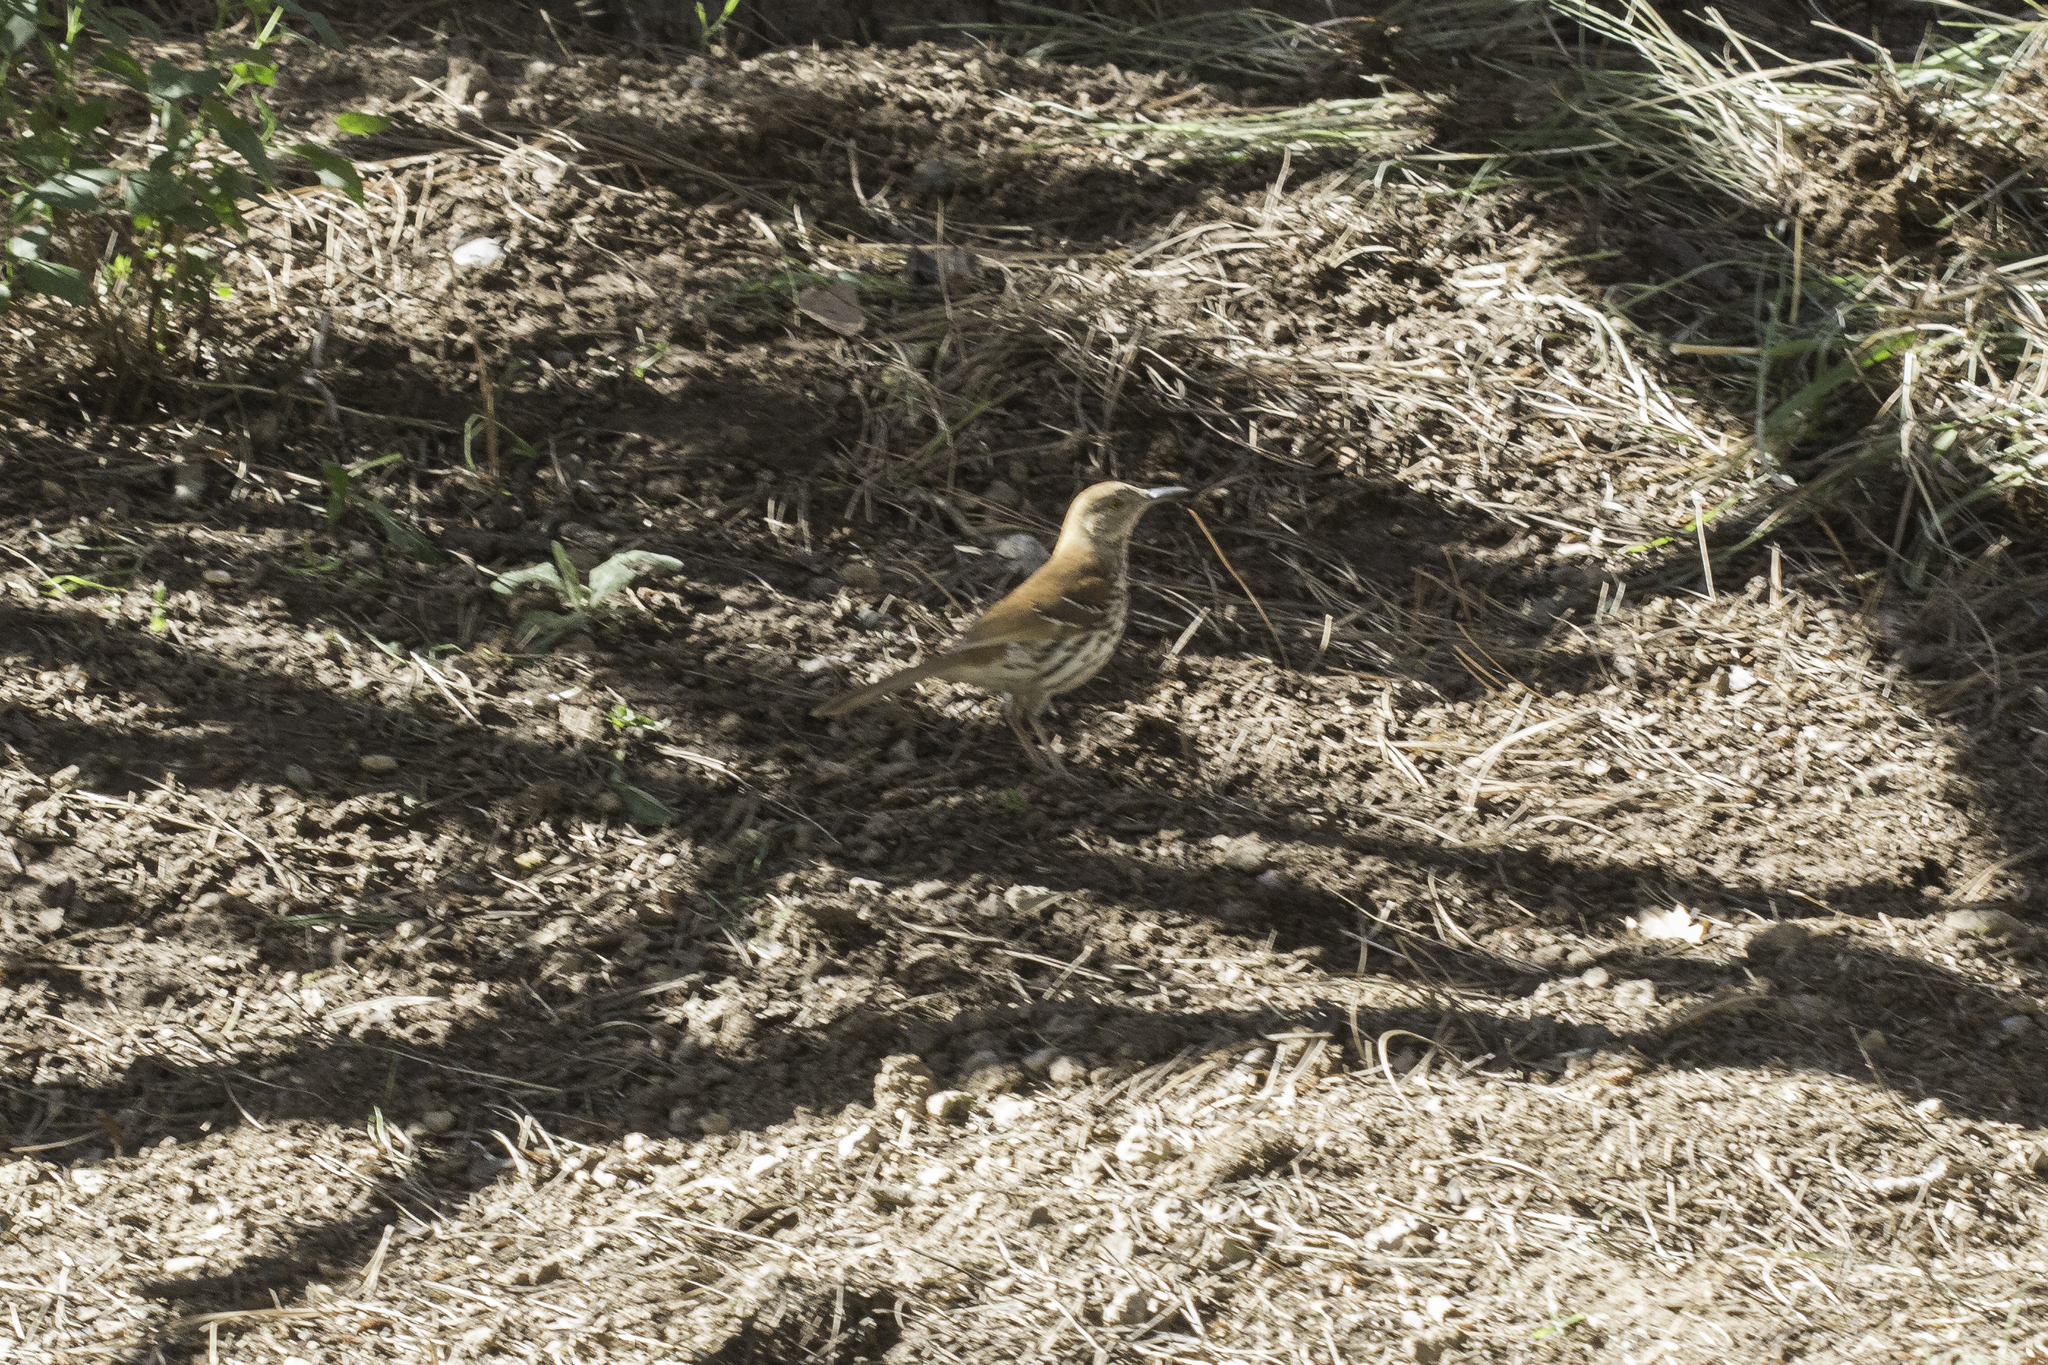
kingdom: Animalia
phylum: Chordata
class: Aves
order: Passeriformes
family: Mimidae
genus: Toxostoma
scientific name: Toxostoma rufum
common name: Brown thrasher
